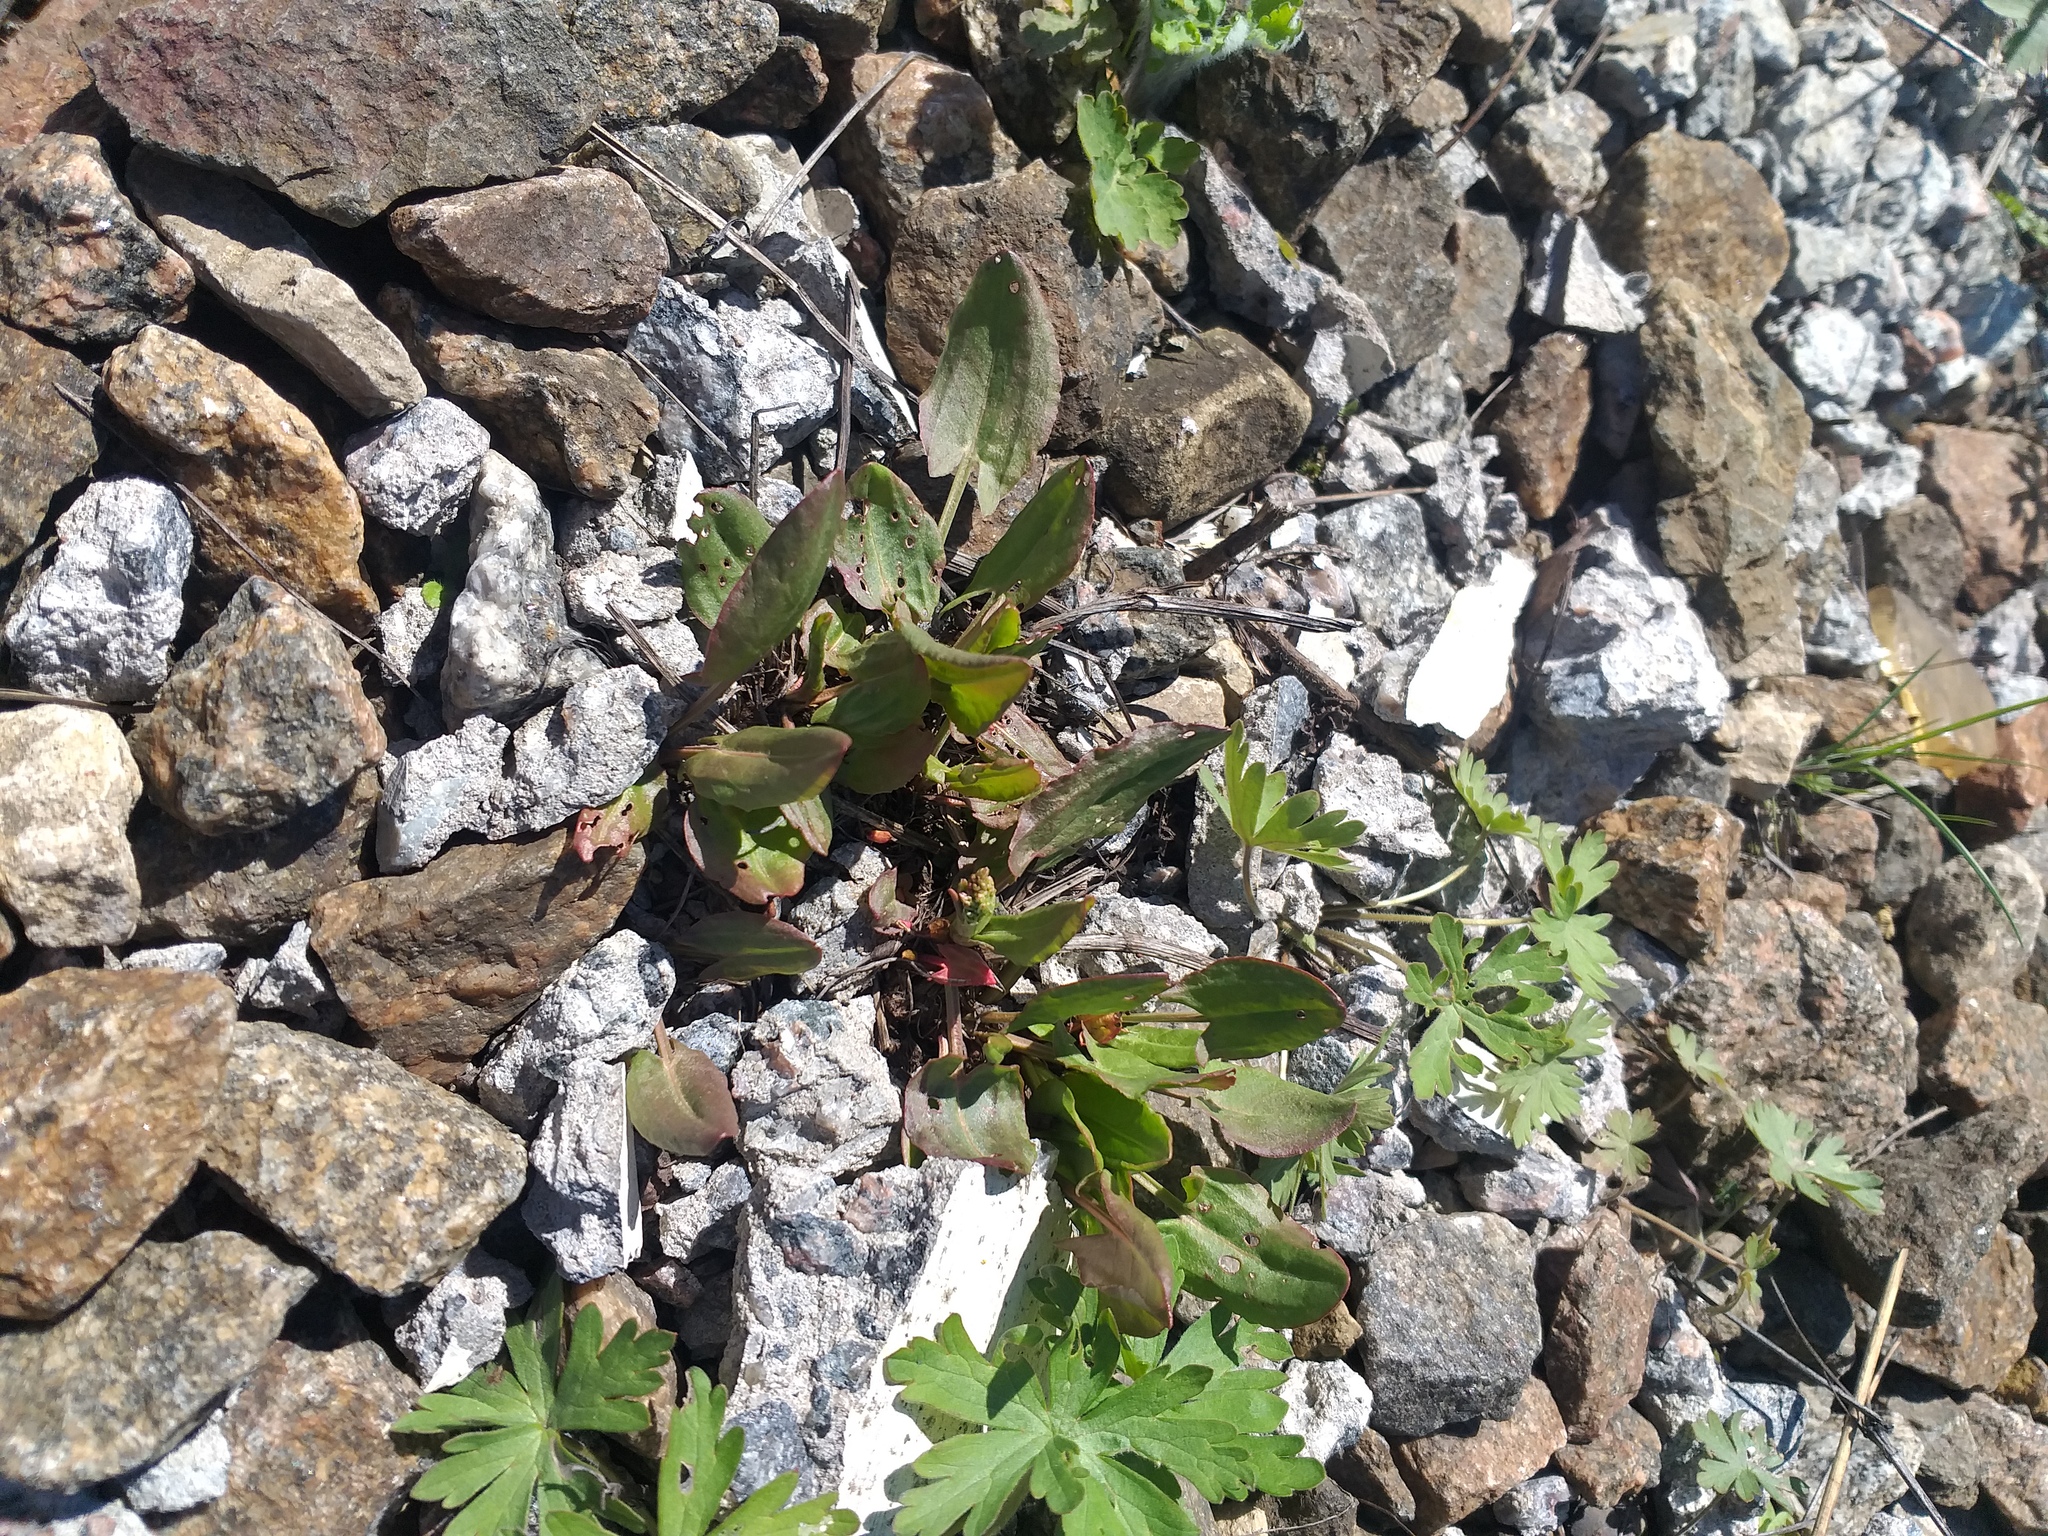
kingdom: Plantae
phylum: Tracheophyta
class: Magnoliopsida
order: Caryophyllales
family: Polygonaceae
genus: Rumex
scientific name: Rumex acetosa
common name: Garden sorrel
